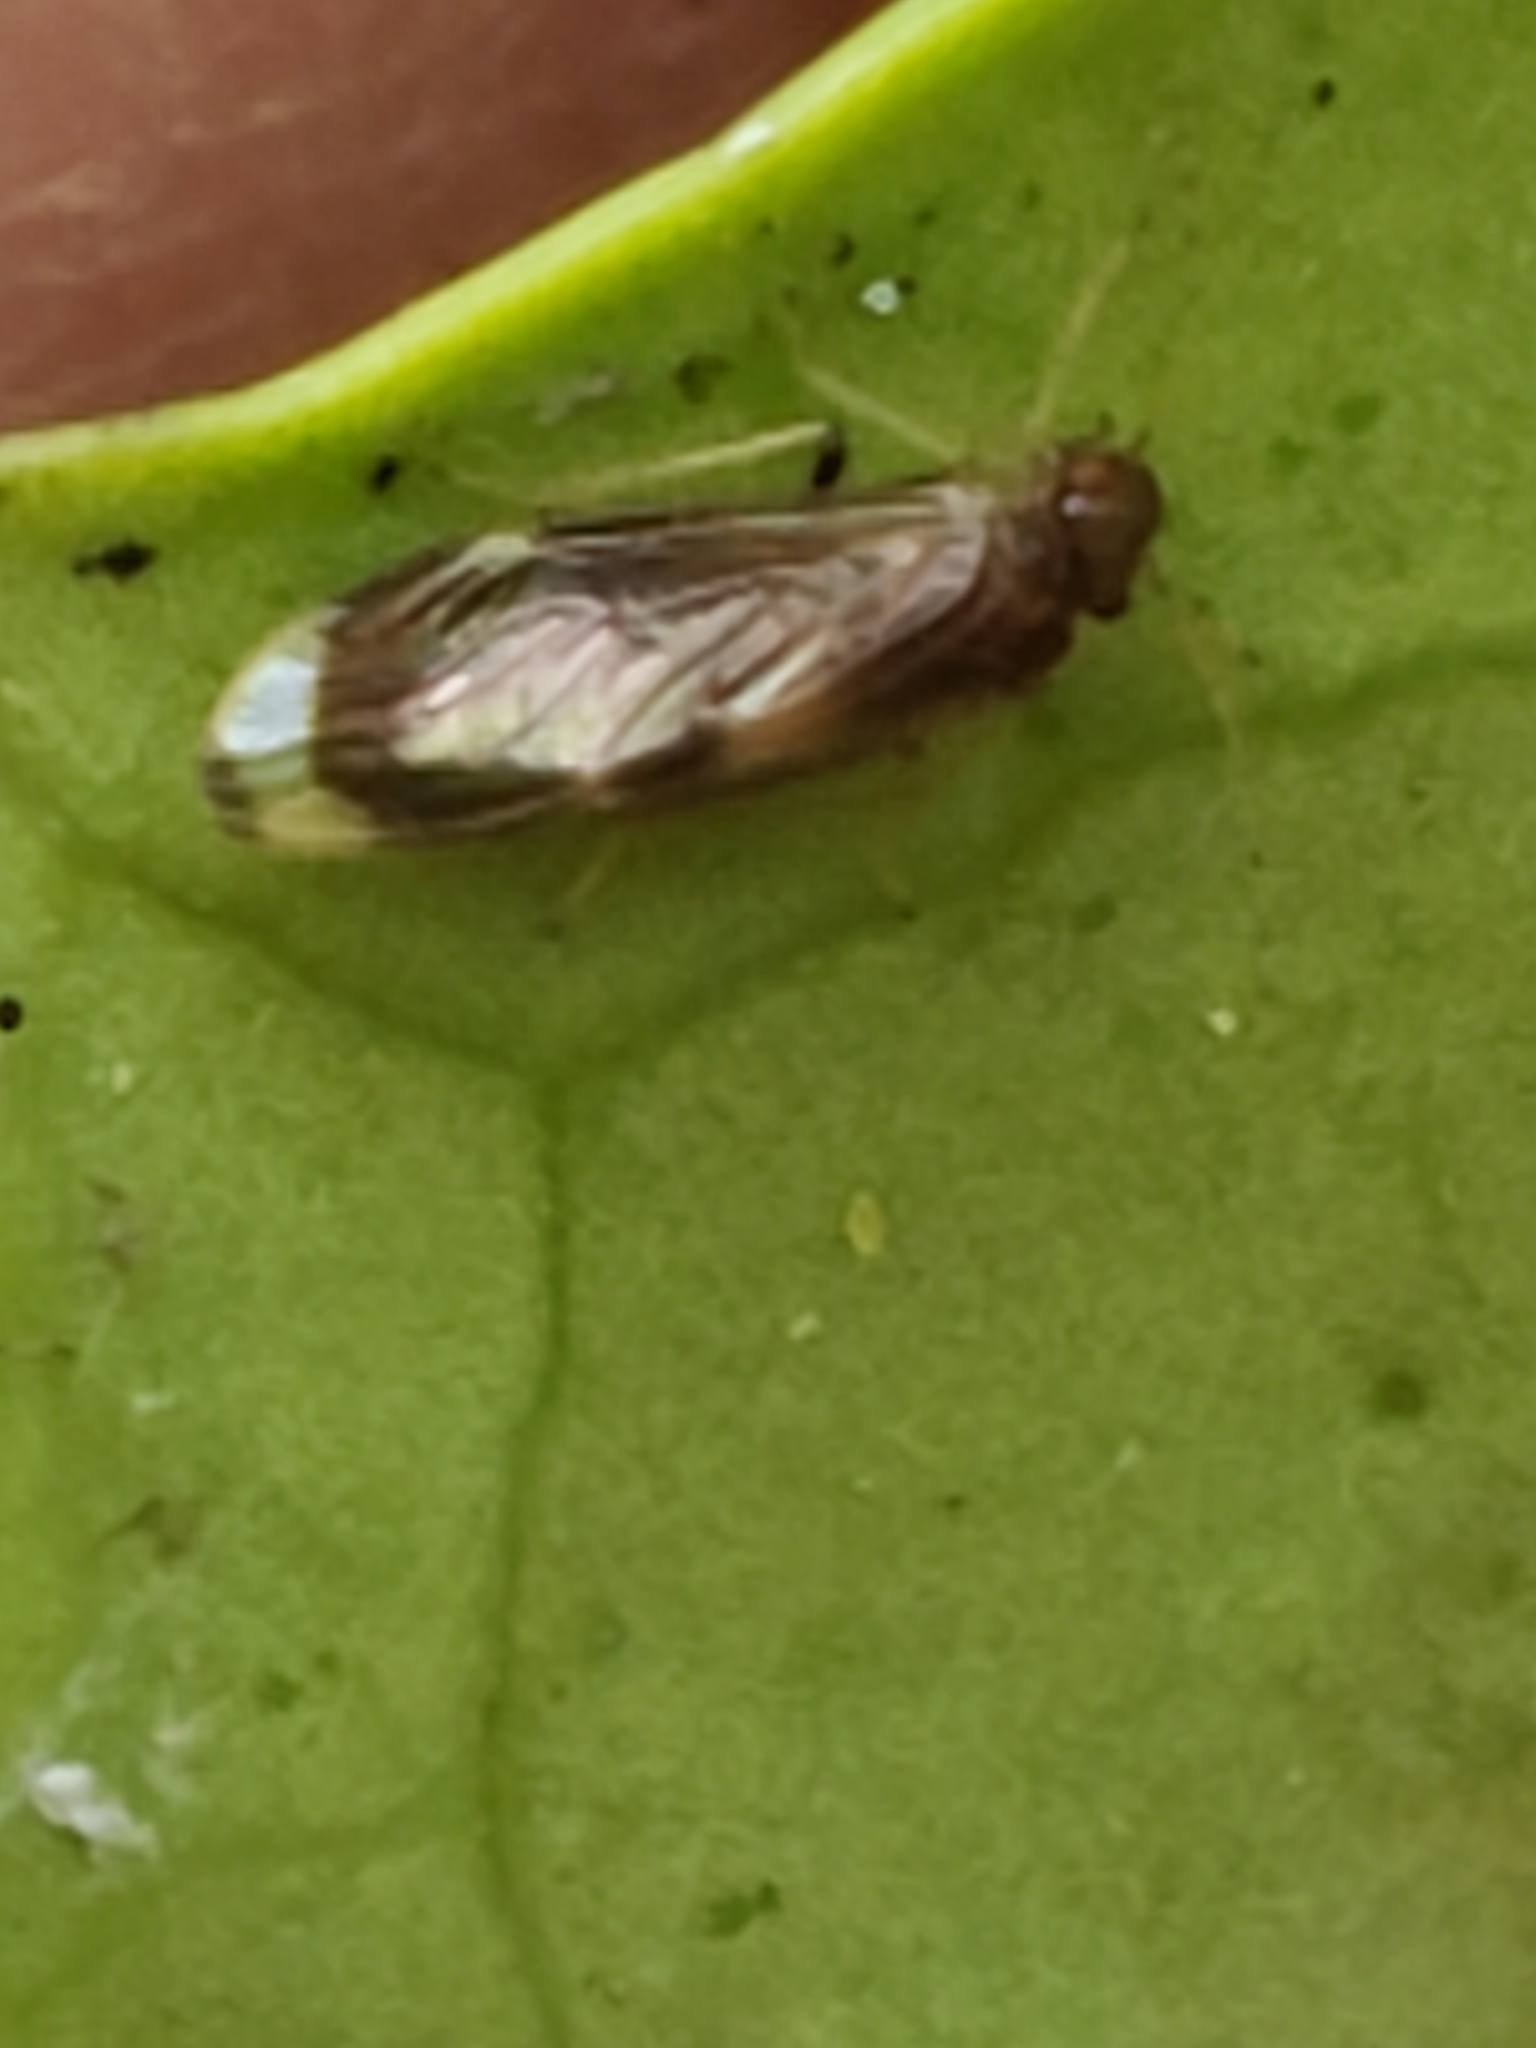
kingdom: Animalia
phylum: Arthropoda
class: Insecta
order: Psocodea
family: Amphipsocidae
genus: Polypsocus
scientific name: Polypsocus corruptus
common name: Corrupt barklouse
